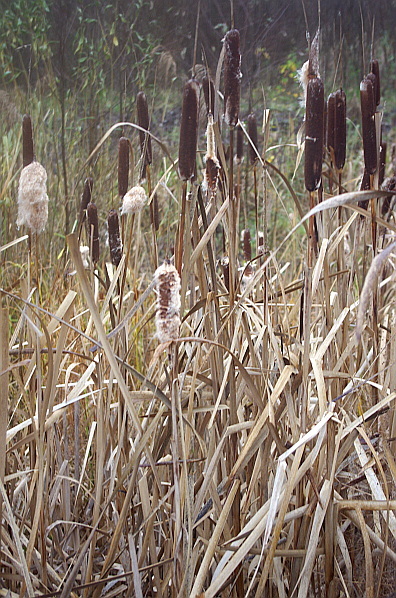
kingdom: Plantae
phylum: Tracheophyta
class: Liliopsida
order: Poales
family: Typhaceae
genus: Typha
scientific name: Typha latifolia
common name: Broadleaf cattail
